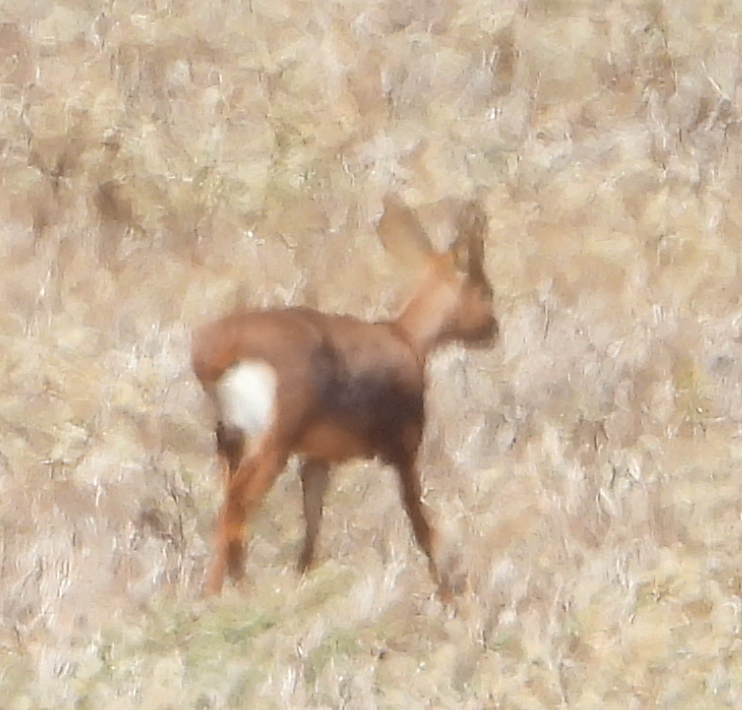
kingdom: Animalia
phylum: Chordata
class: Mammalia
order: Artiodactyla
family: Bovidae
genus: Raphicerus
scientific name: Raphicerus campestris
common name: Steenbok
